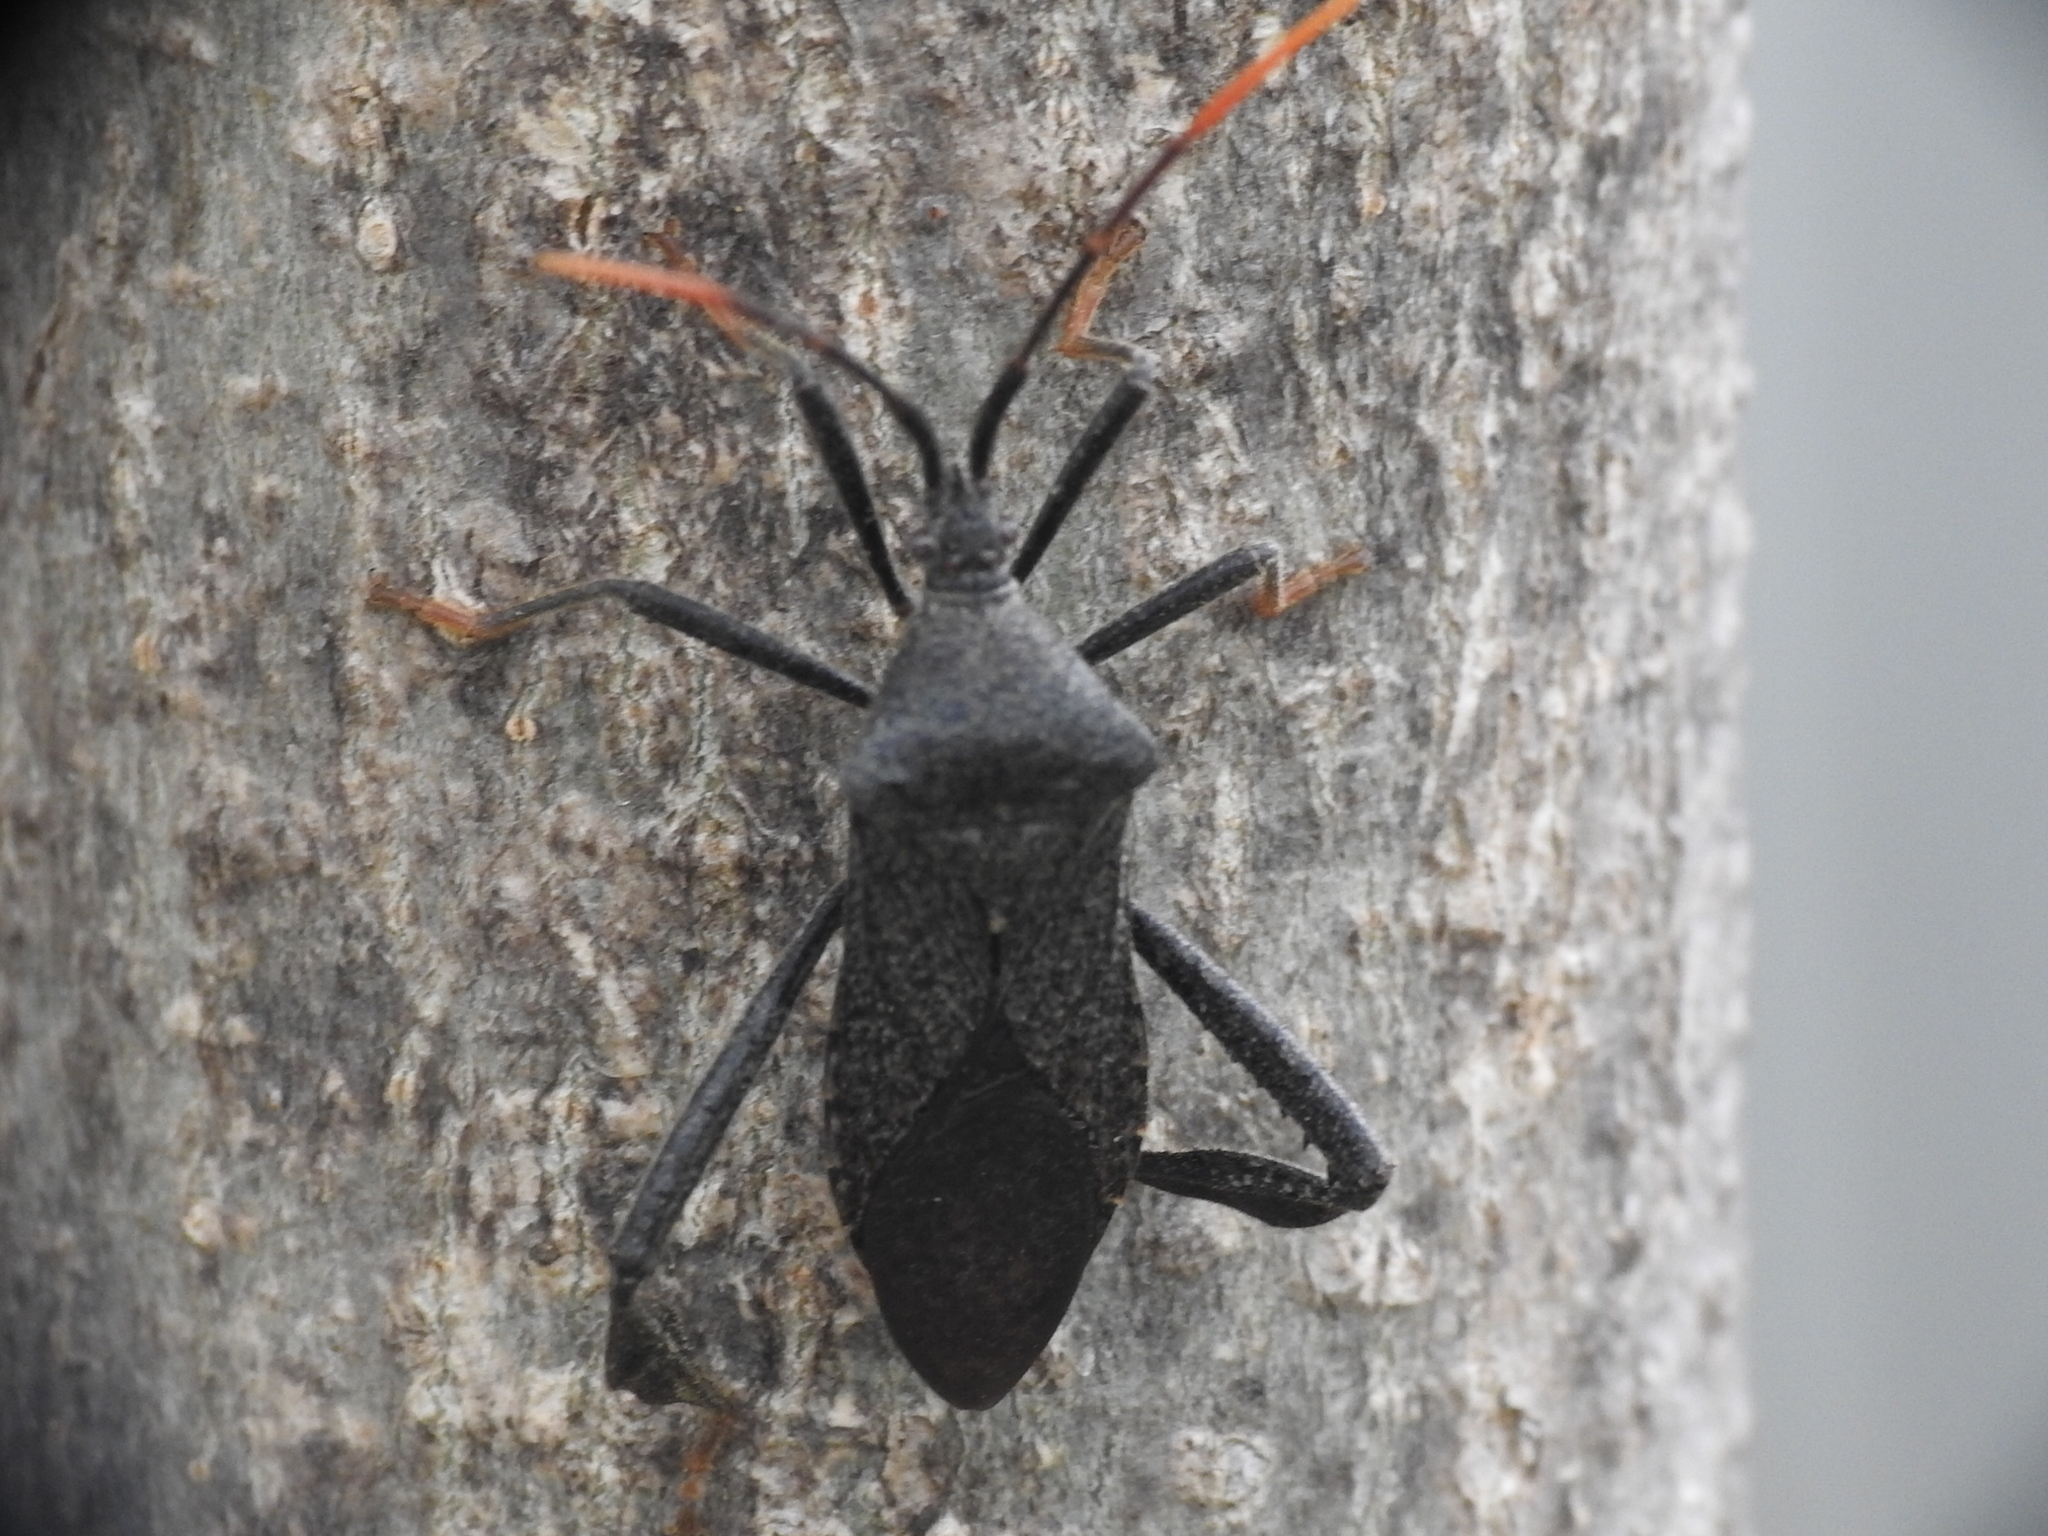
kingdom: Animalia
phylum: Arthropoda
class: Insecta
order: Hemiptera
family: Coreidae
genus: Acanthocephala
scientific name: Acanthocephala terminalis
